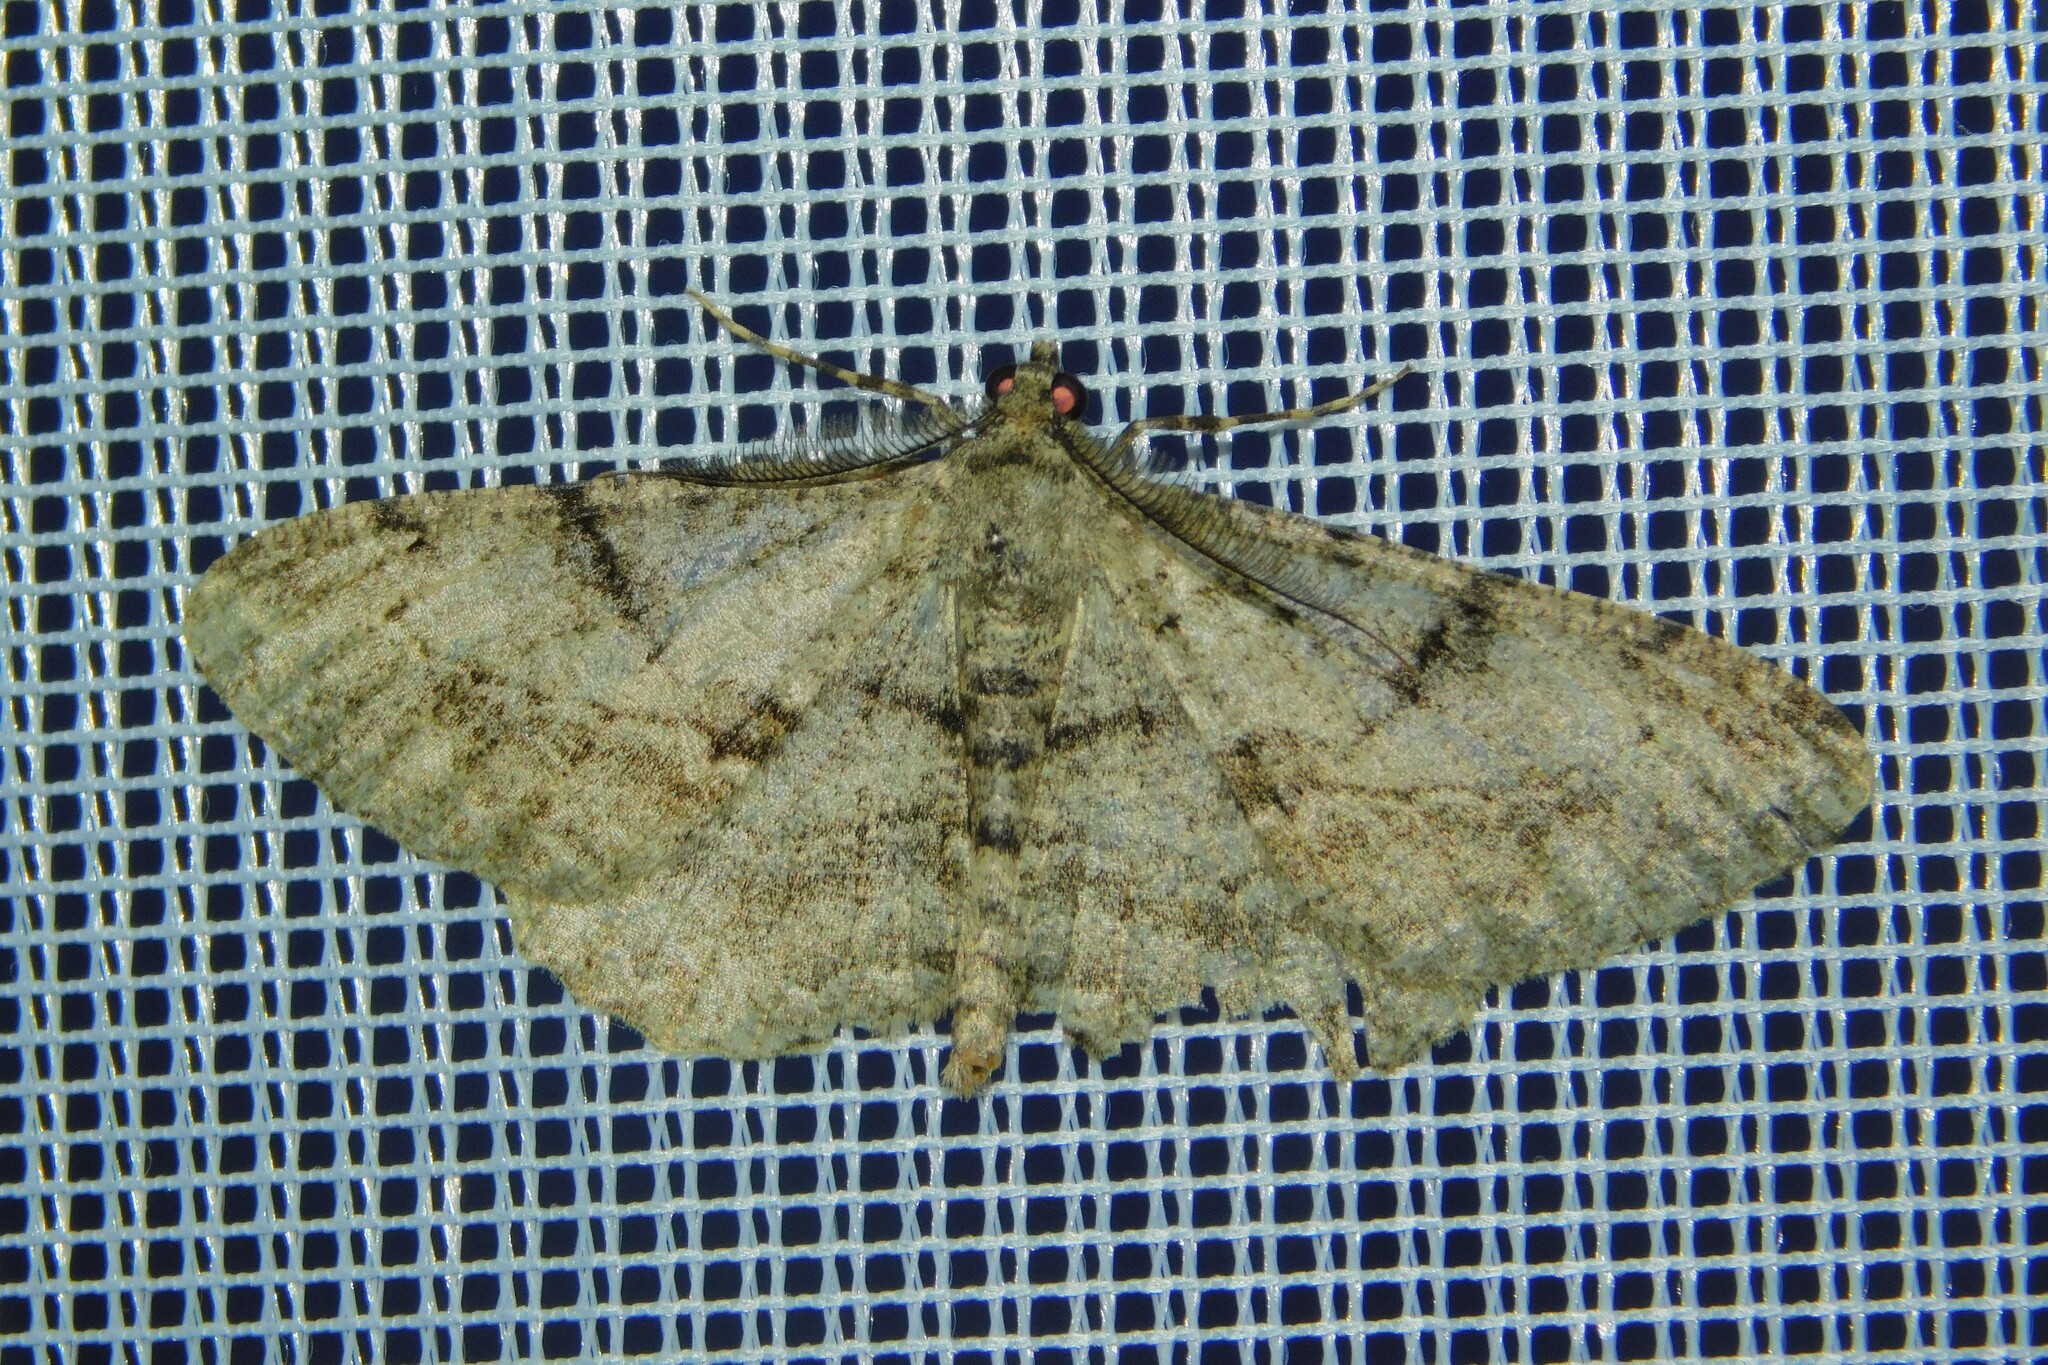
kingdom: Animalia
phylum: Arthropoda
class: Insecta
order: Lepidoptera
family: Geometridae
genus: Peribatodes
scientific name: Peribatodes rhomboidaria
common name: Willow beauty
